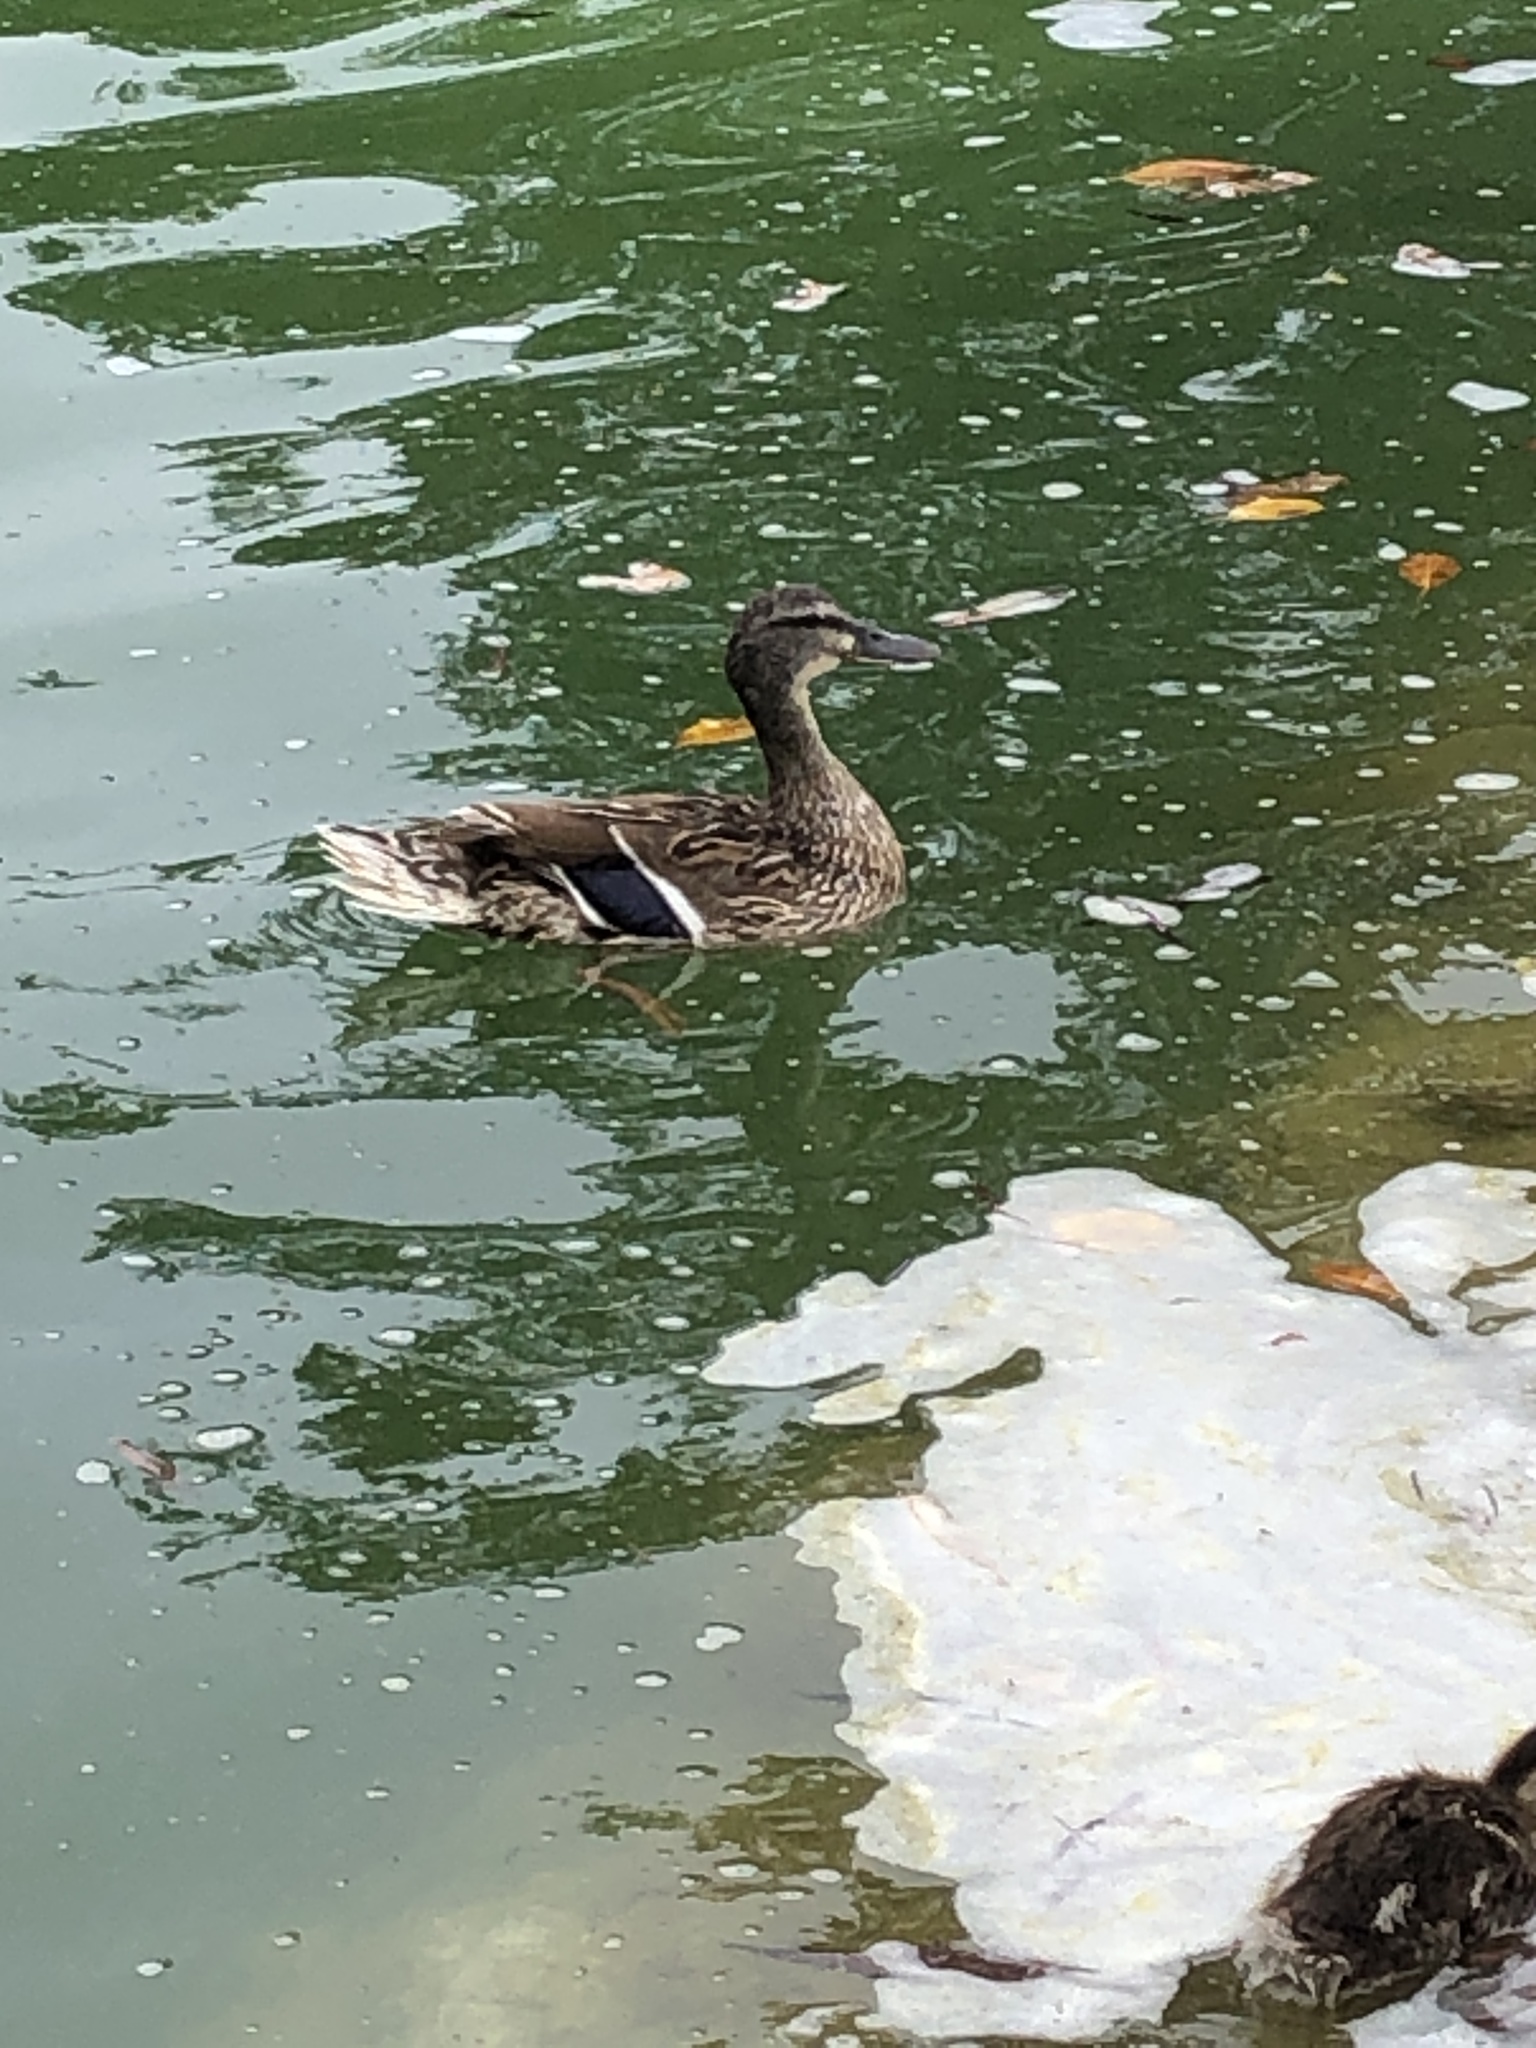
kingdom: Animalia
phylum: Chordata
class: Aves
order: Anseriformes
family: Anatidae
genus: Anas
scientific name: Anas platyrhynchos
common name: Mallard
